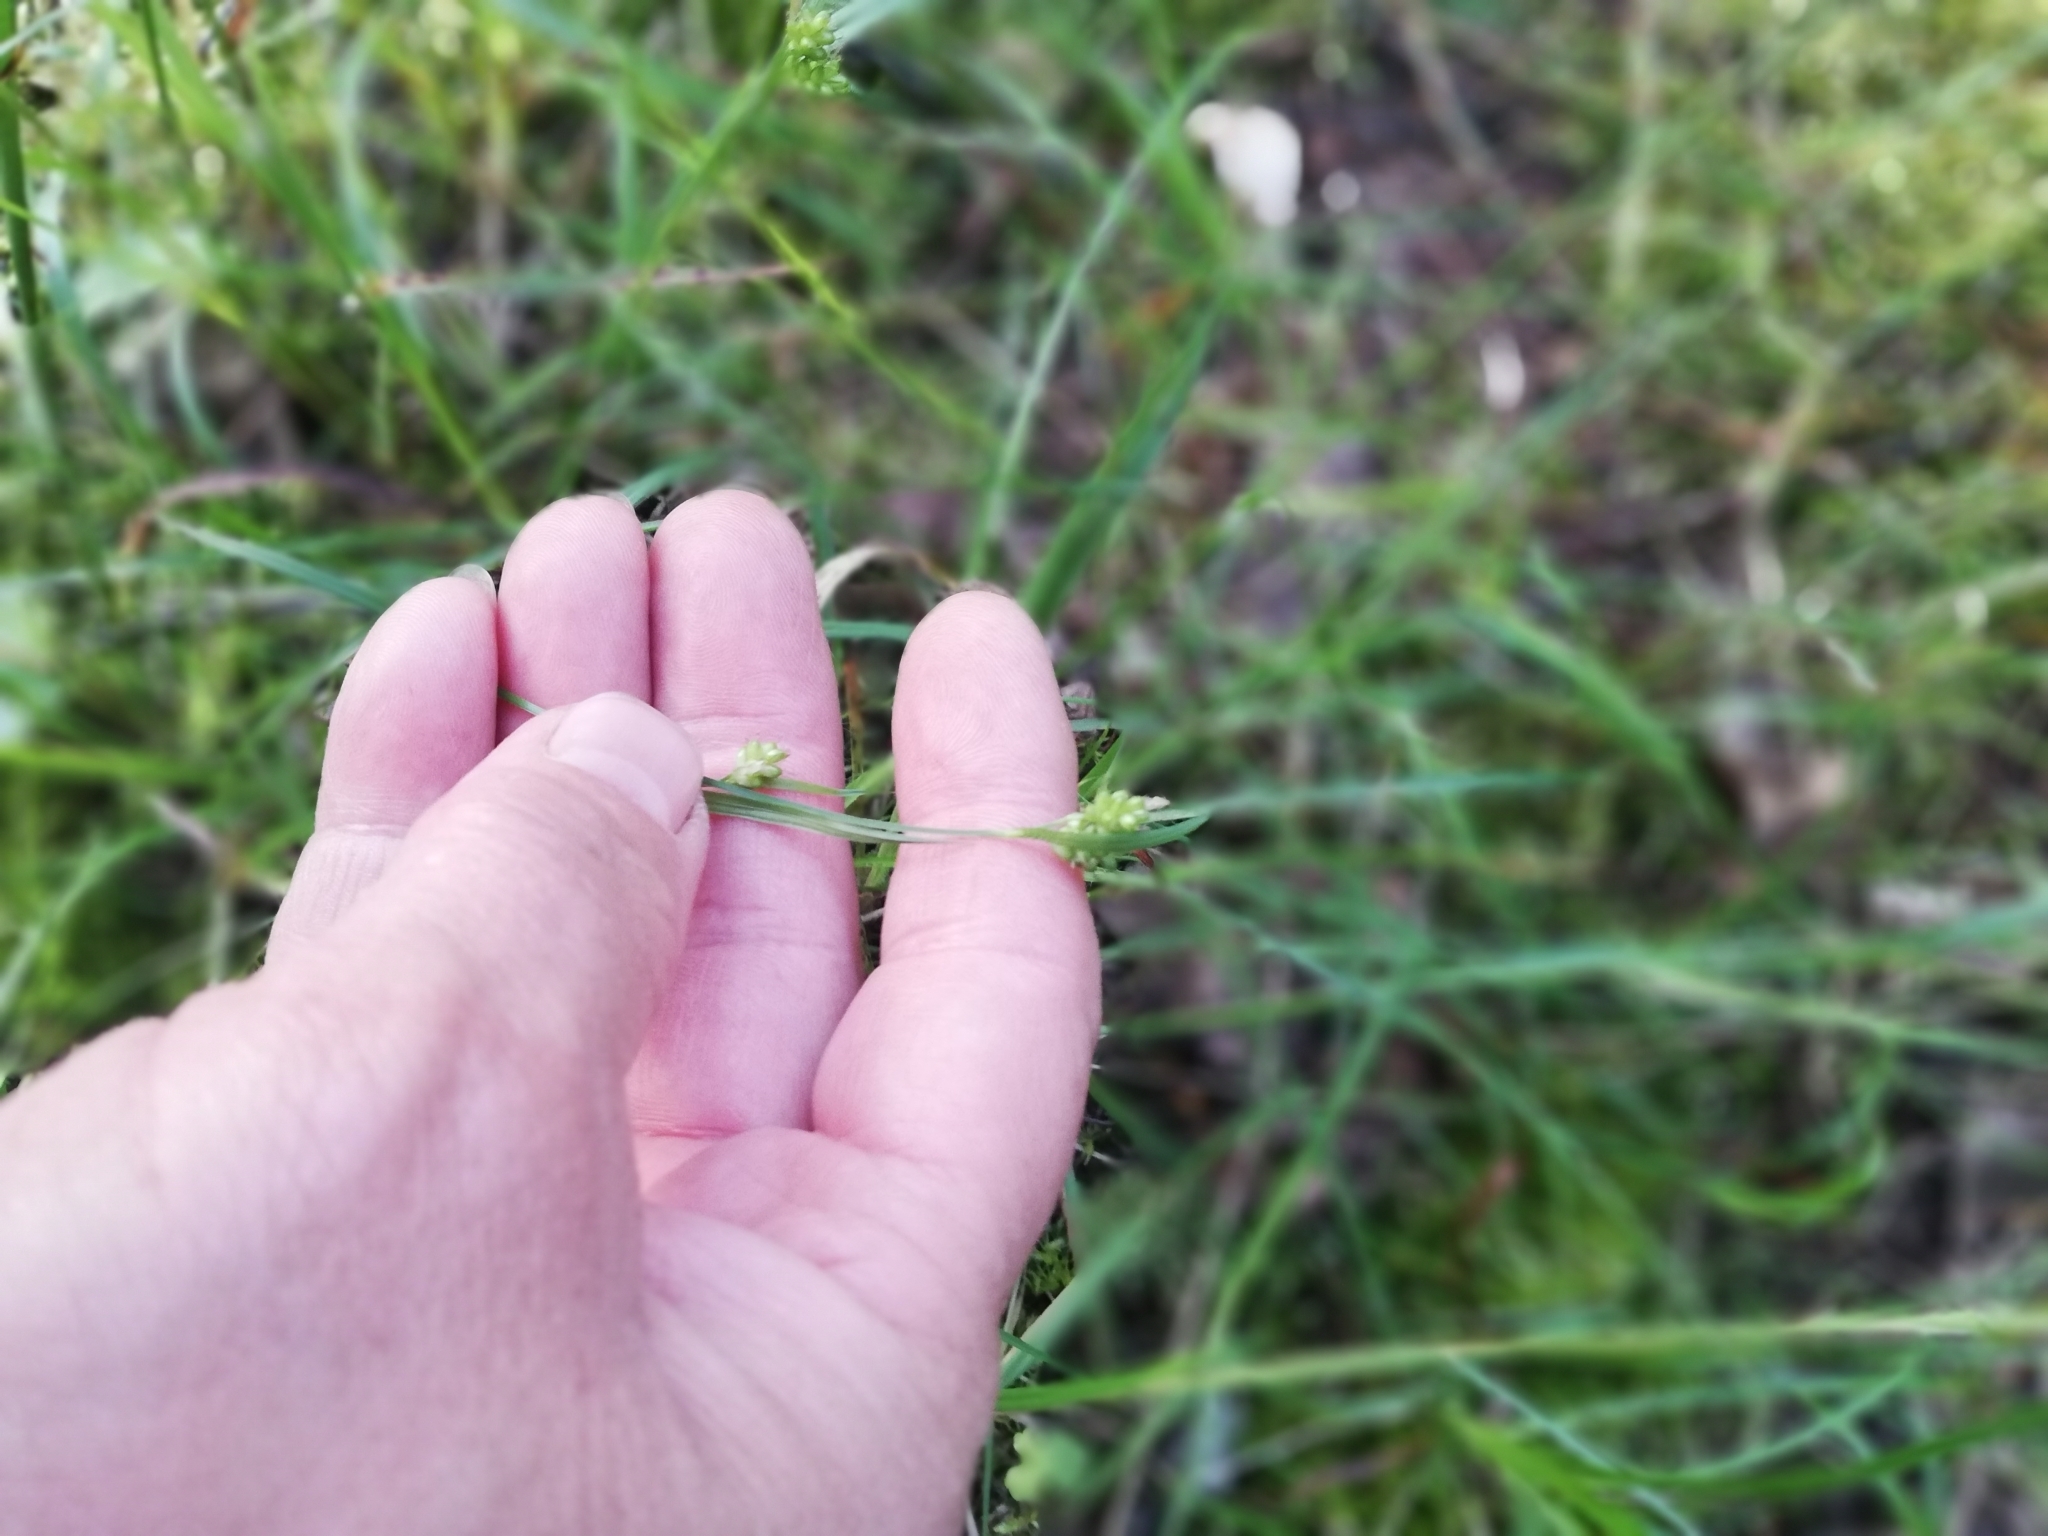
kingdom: Plantae
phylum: Tracheophyta
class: Liliopsida
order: Poales
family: Cyperaceae
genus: Carex
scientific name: Carex pallescens
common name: Pale sedge
